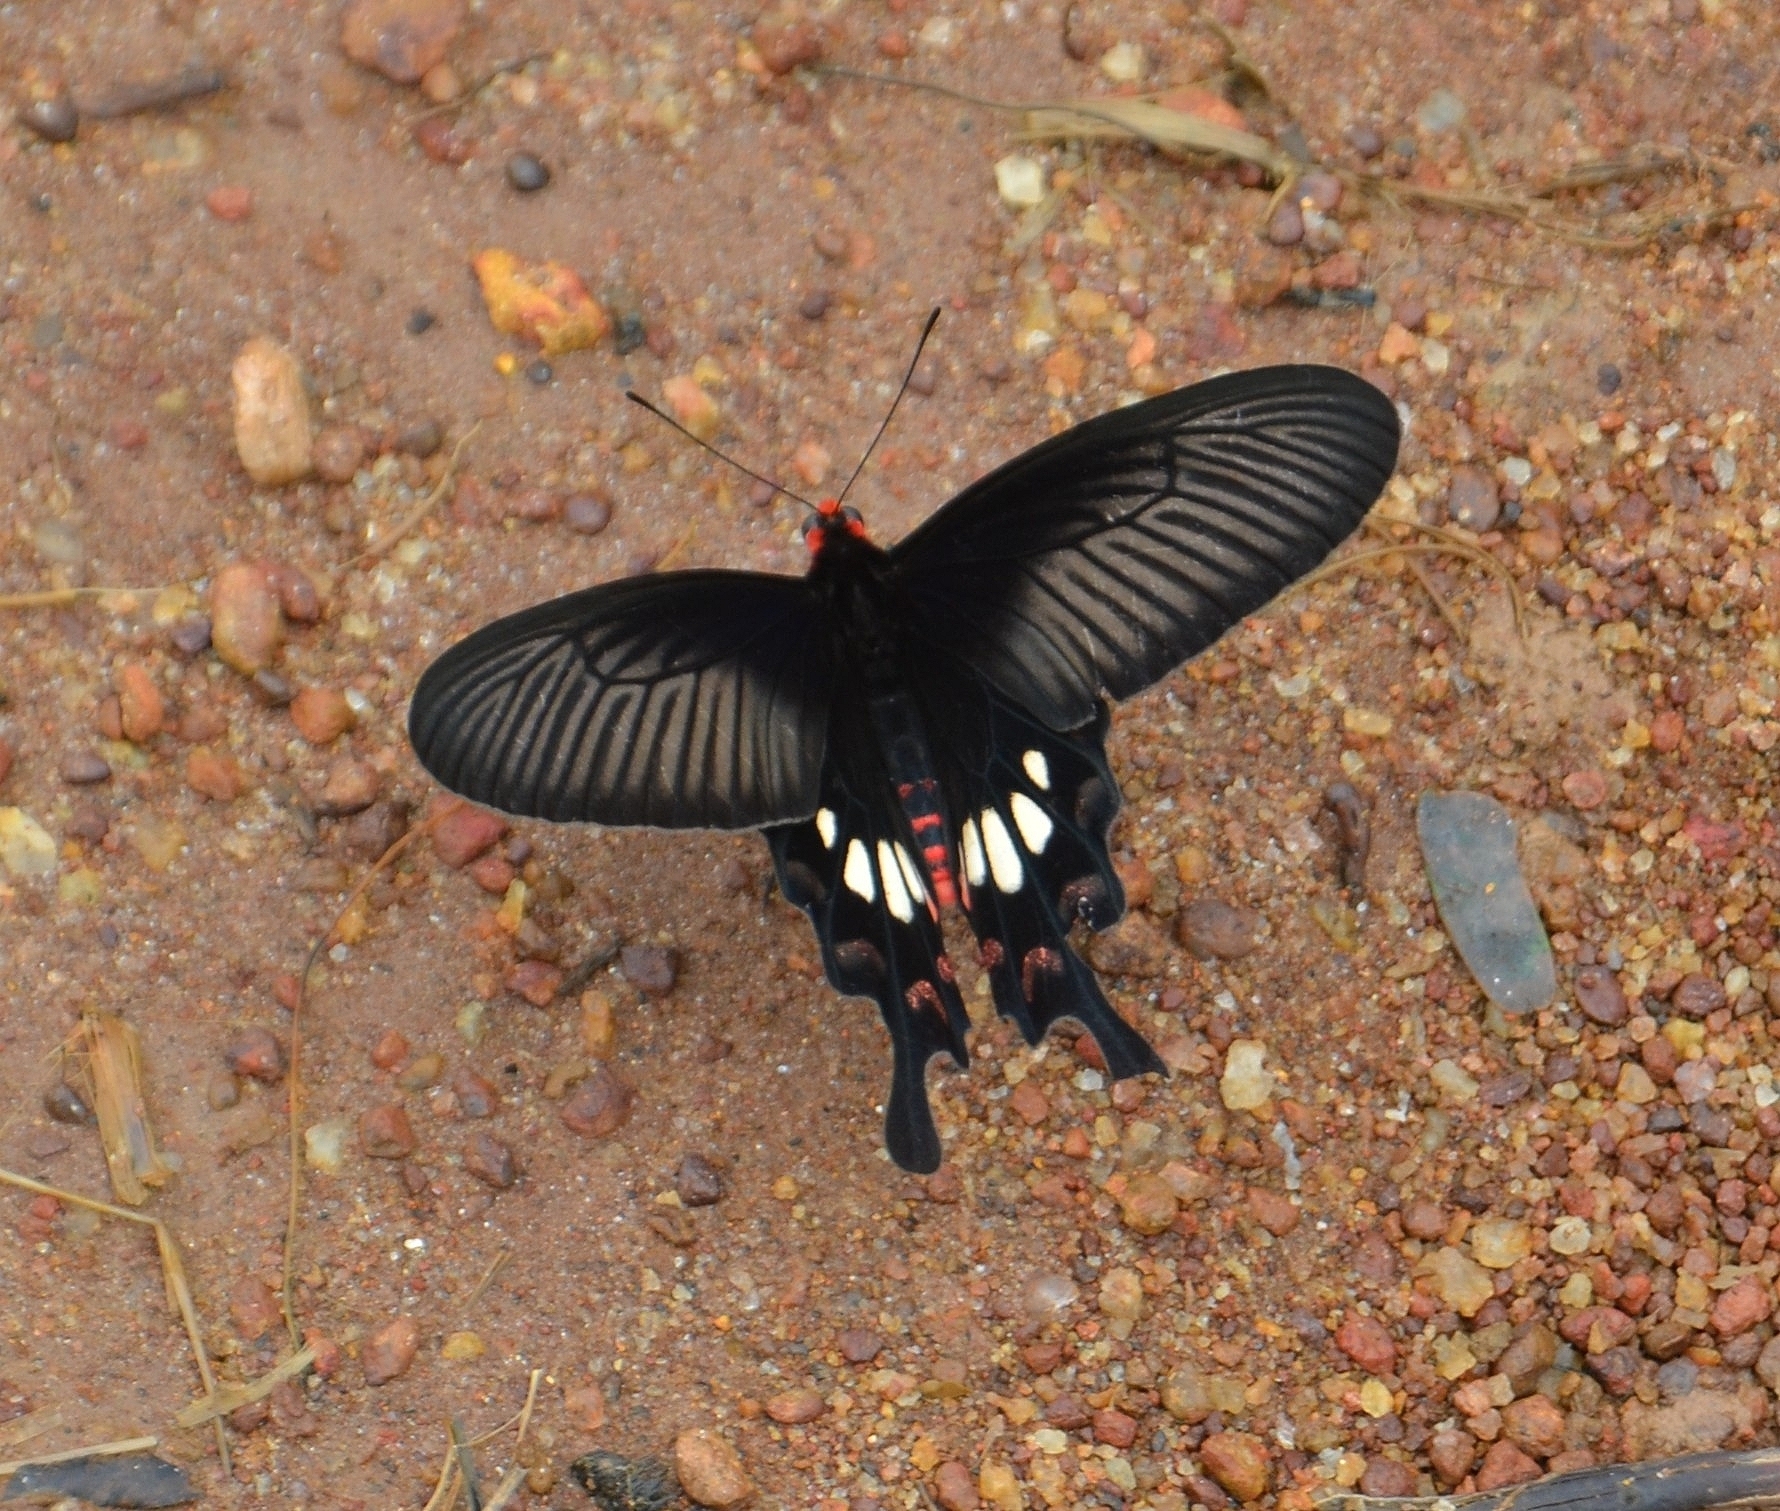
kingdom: Animalia
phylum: Arthropoda
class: Insecta
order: Lepidoptera
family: Papilionidae
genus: Pachliopta
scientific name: Pachliopta aristolochiae
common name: Common rose
